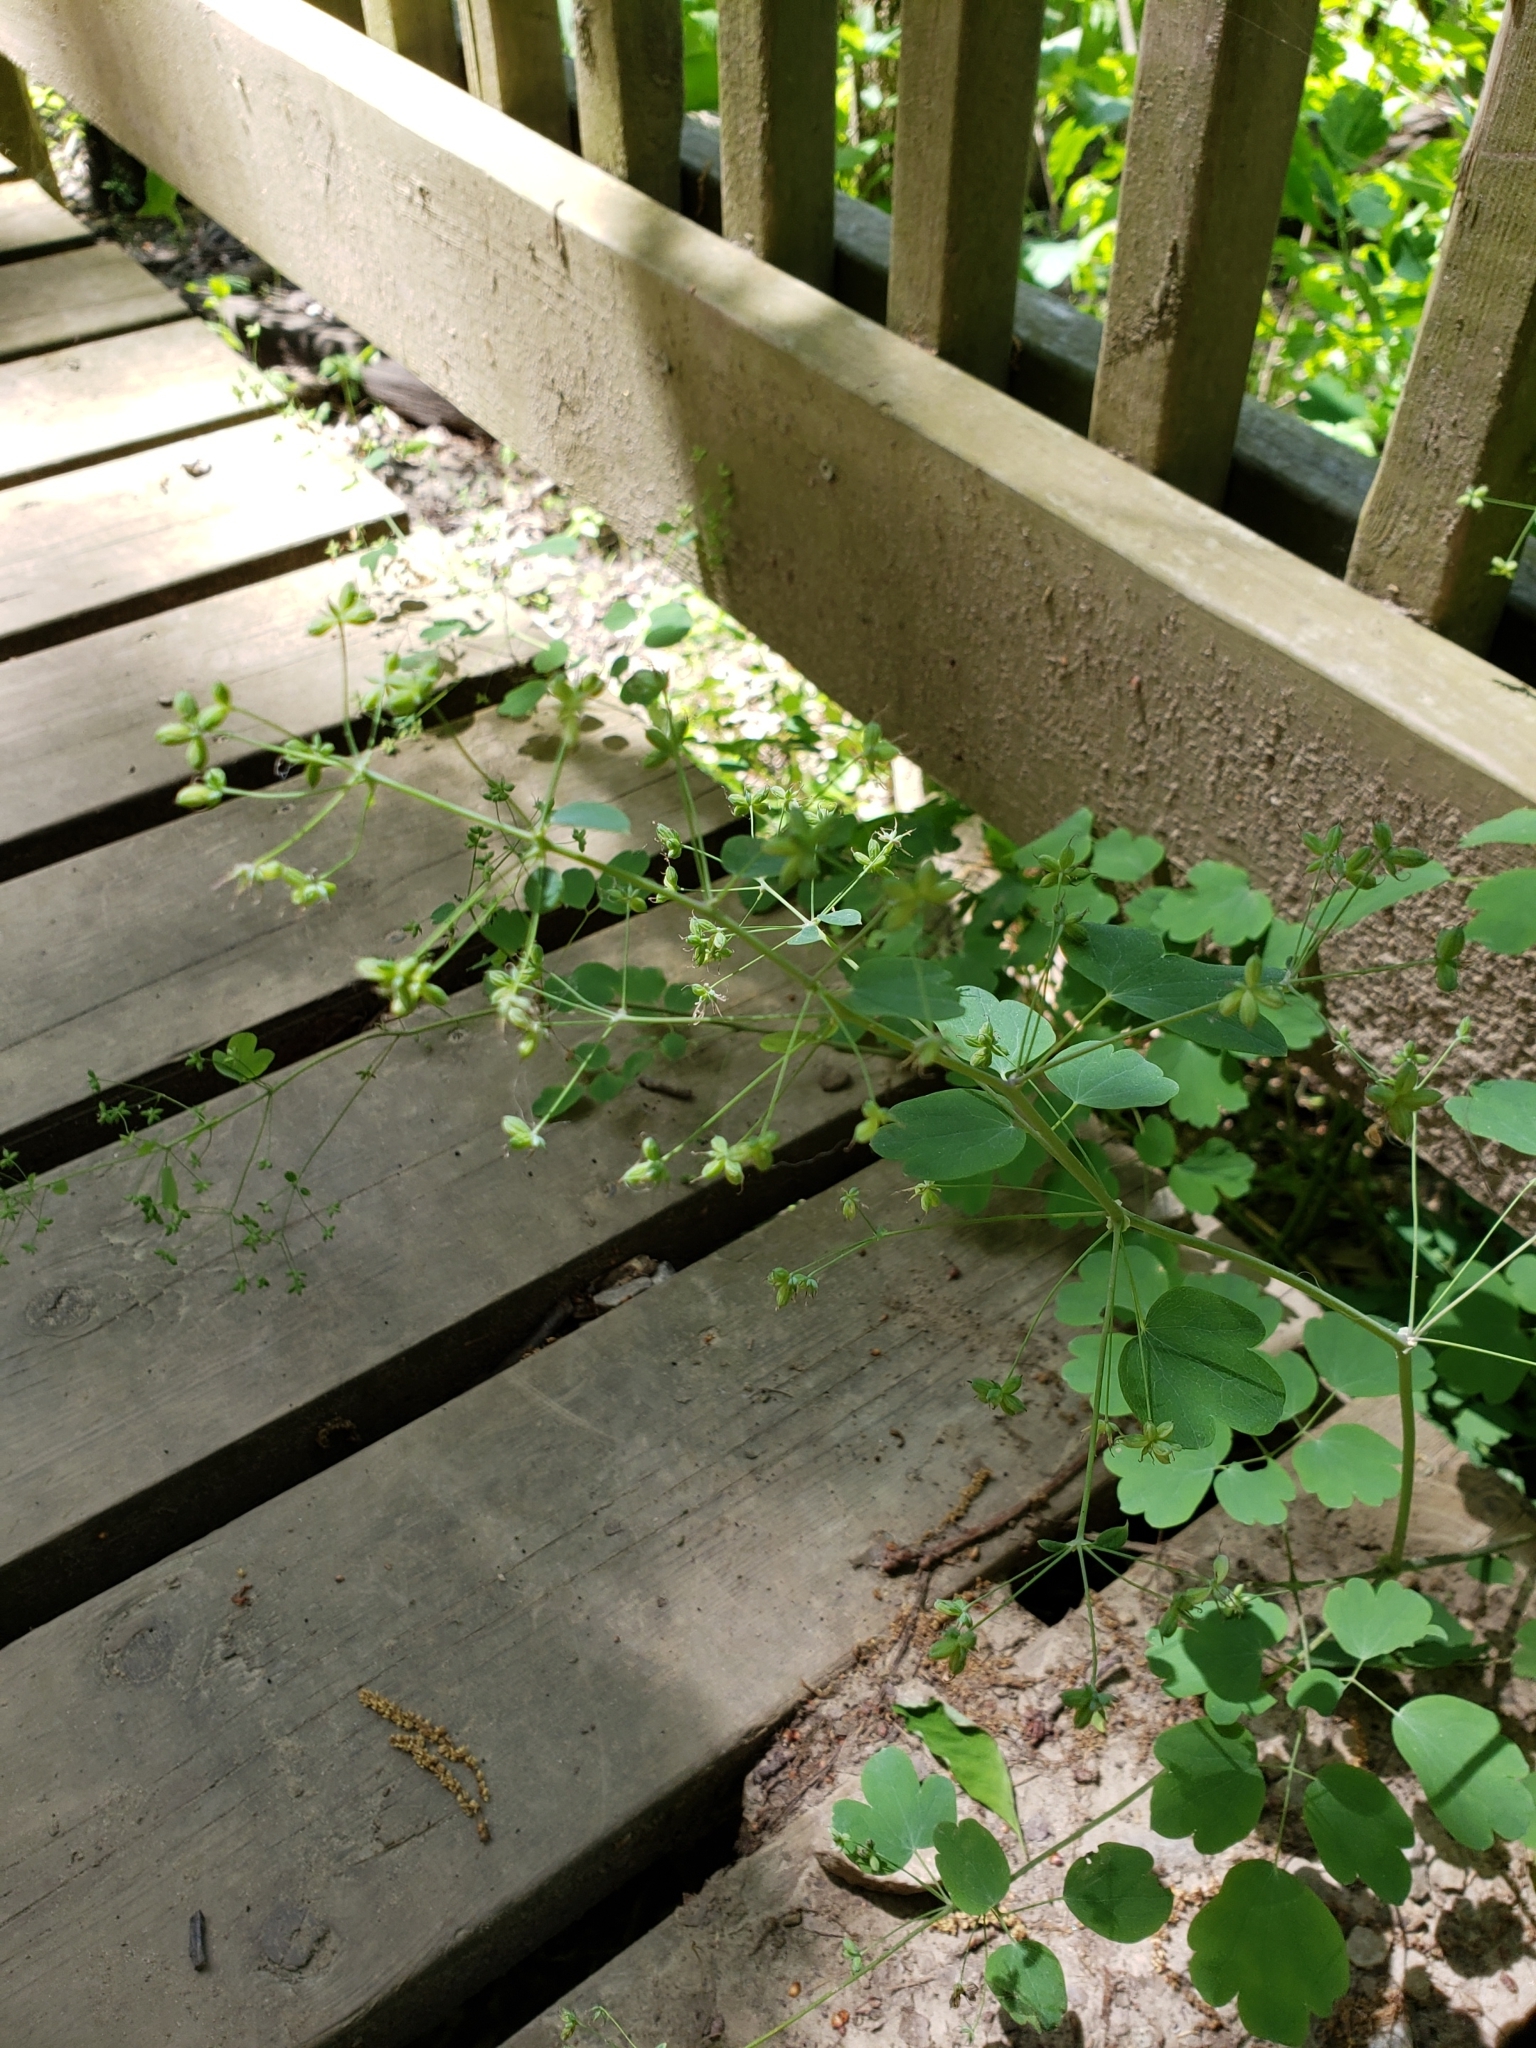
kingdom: Plantae
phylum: Tracheophyta
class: Magnoliopsida
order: Ranunculales
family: Ranunculaceae
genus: Thalictrum
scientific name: Thalictrum dioicum
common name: Early meadow-rue
